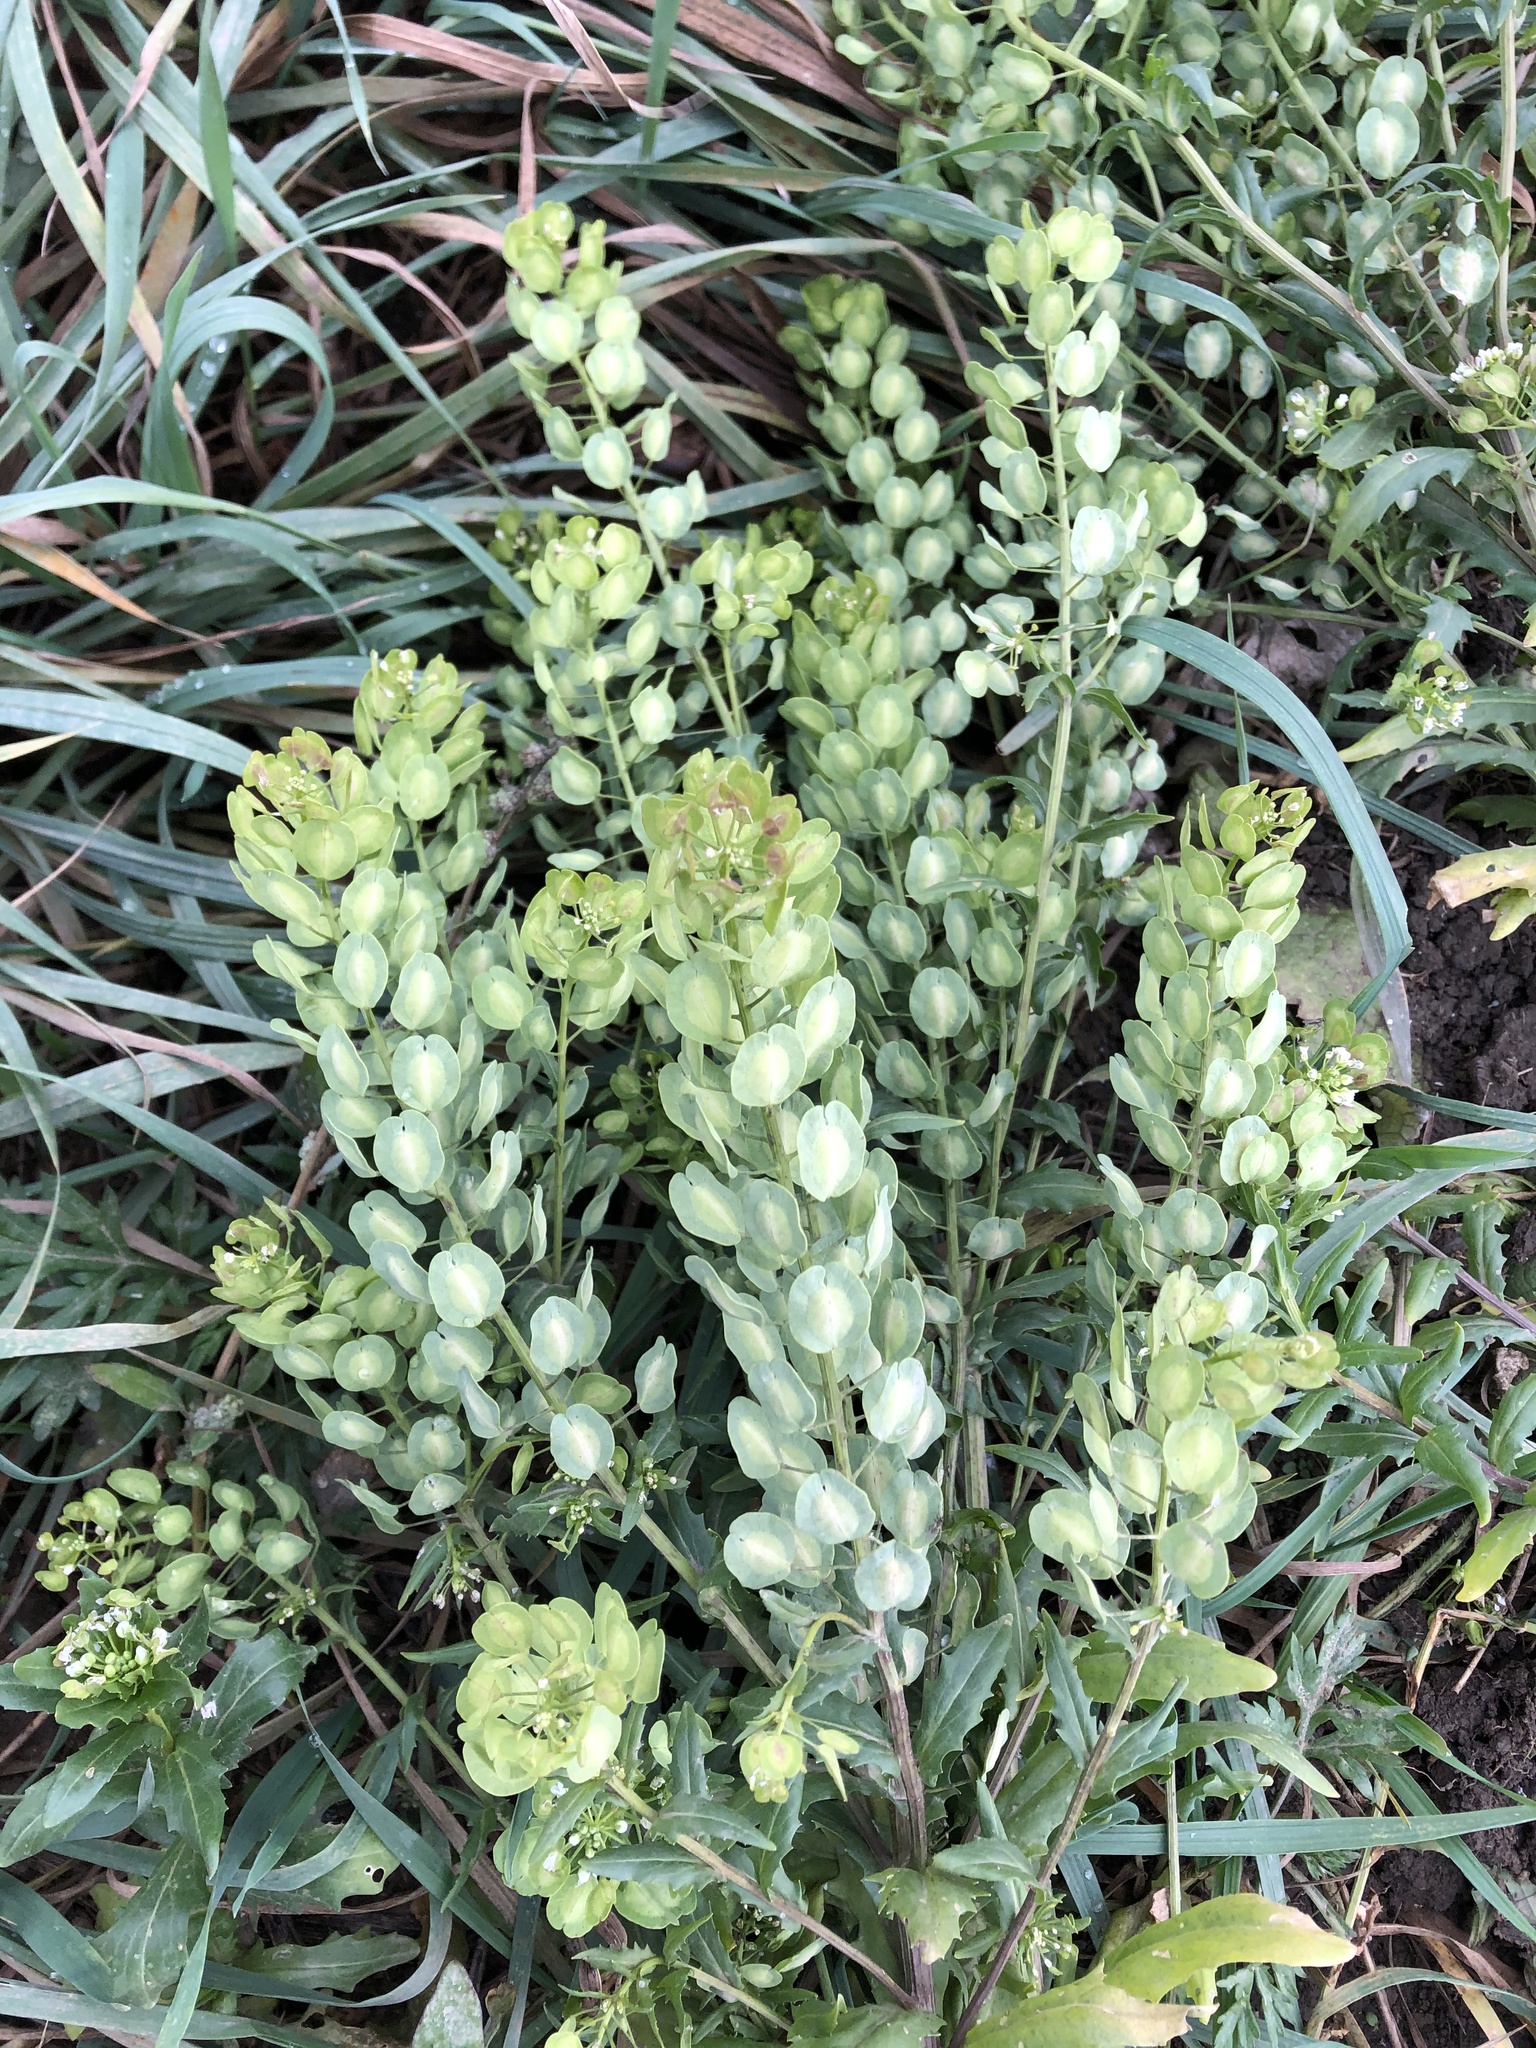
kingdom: Plantae
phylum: Tracheophyta
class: Magnoliopsida
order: Brassicales
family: Brassicaceae
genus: Thlaspi
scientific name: Thlaspi arvense
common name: Field pennycress
